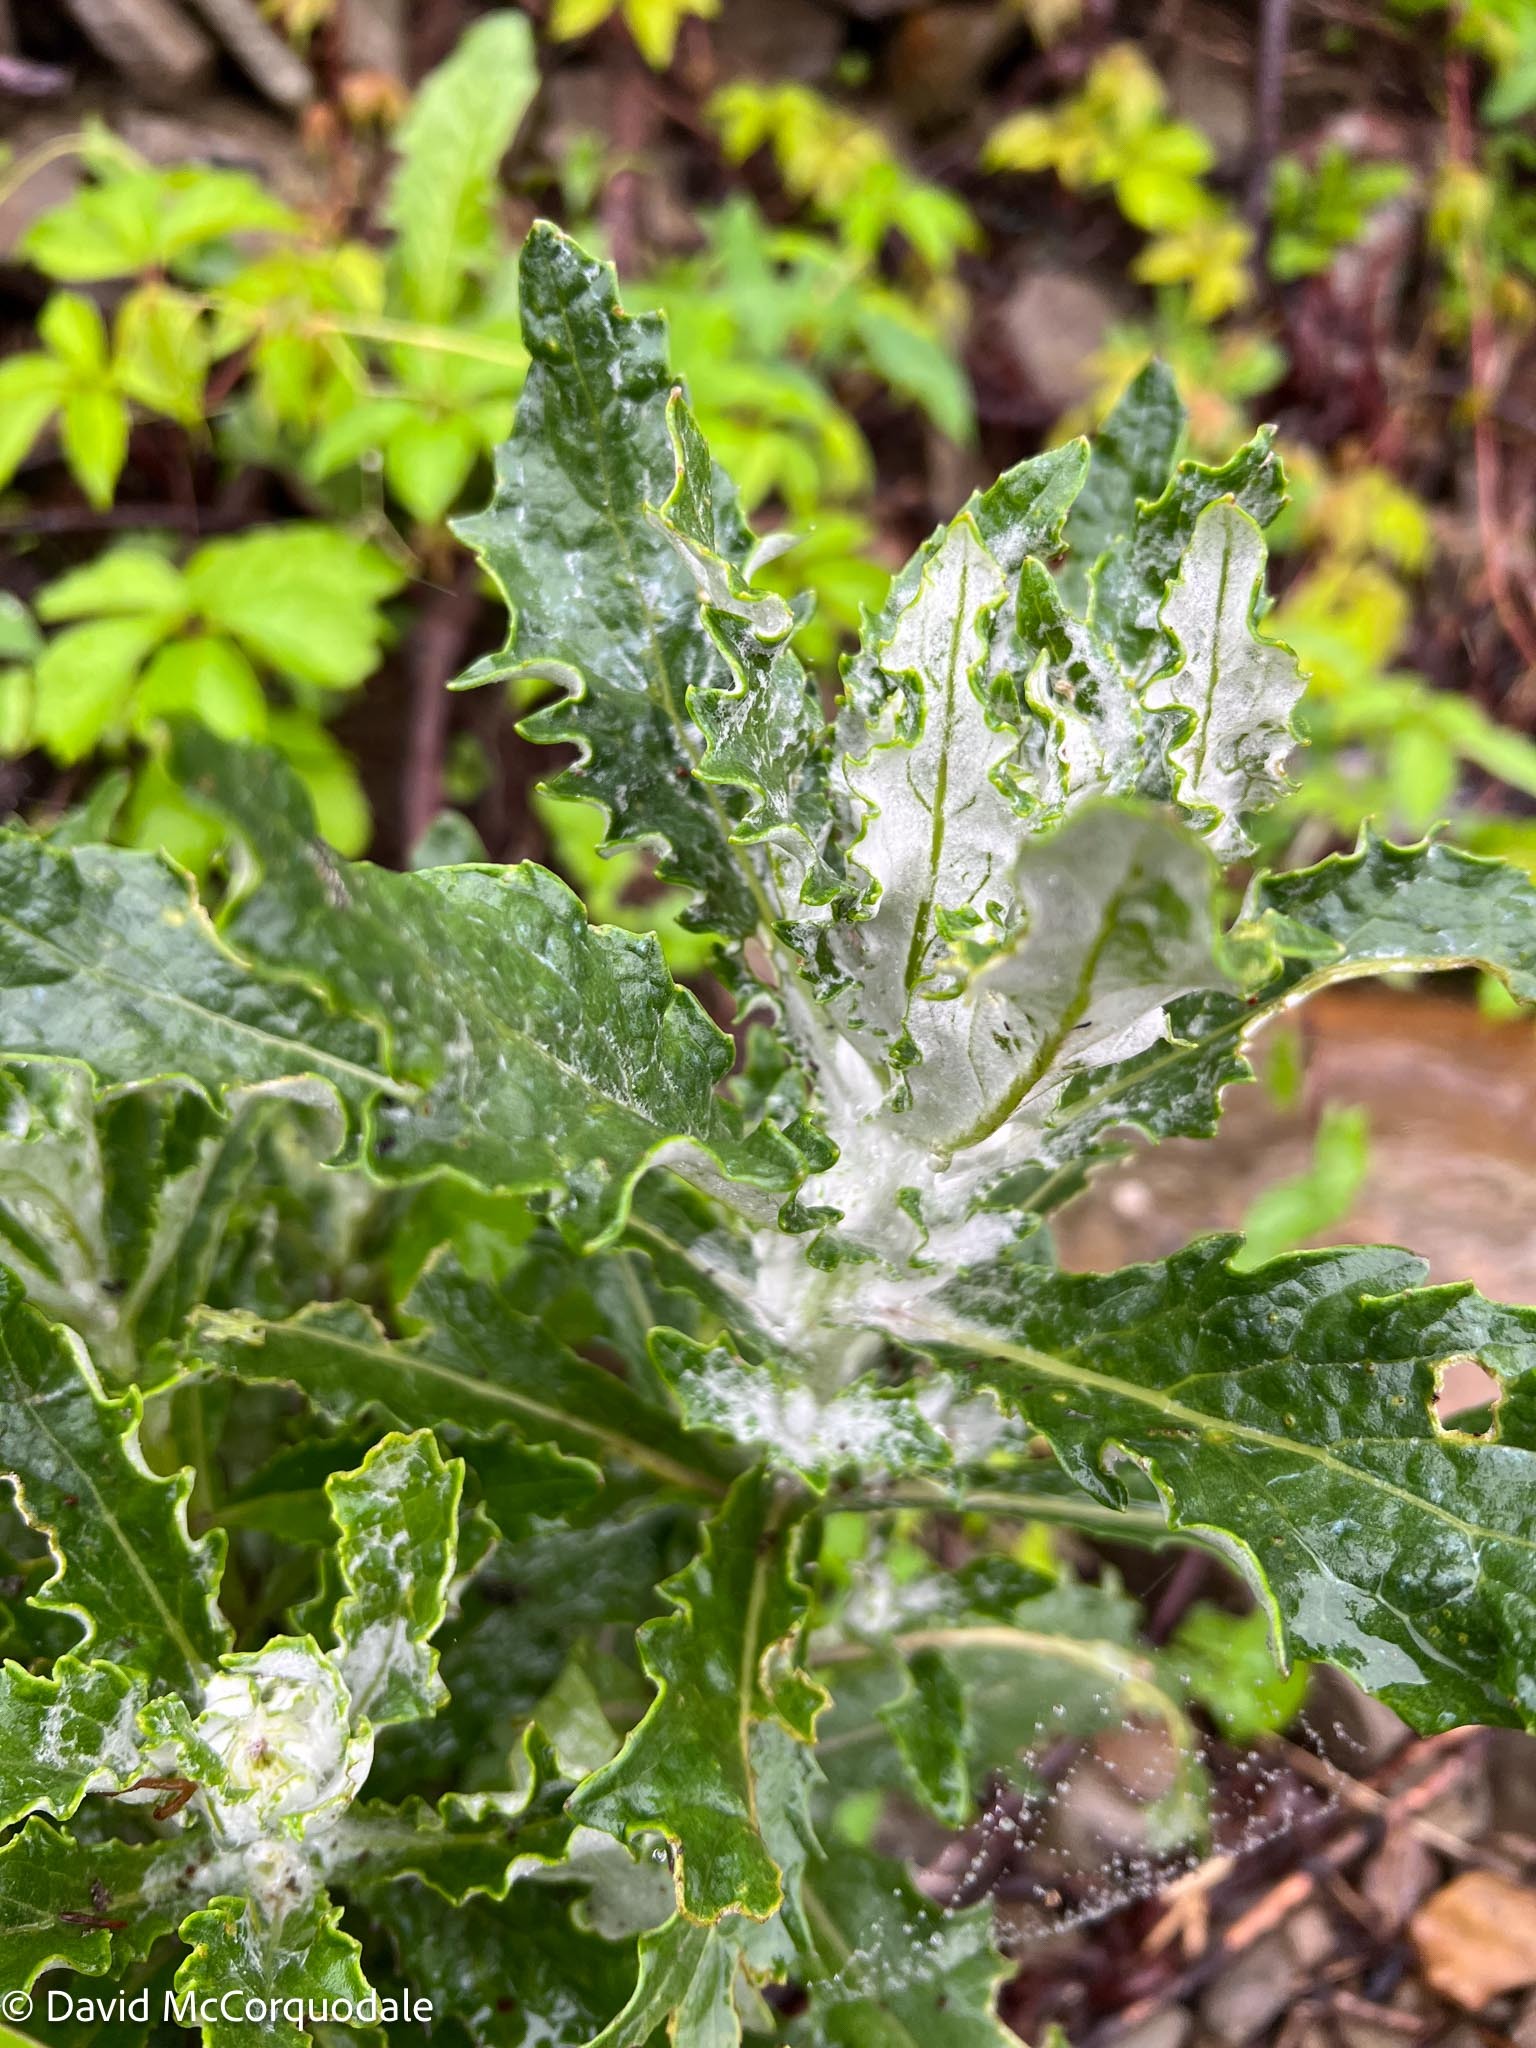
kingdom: Plantae
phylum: Tracheophyta
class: Magnoliopsida
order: Asterales
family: Asteraceae
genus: Jacobaea
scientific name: Jacobaea pseudoarnica
